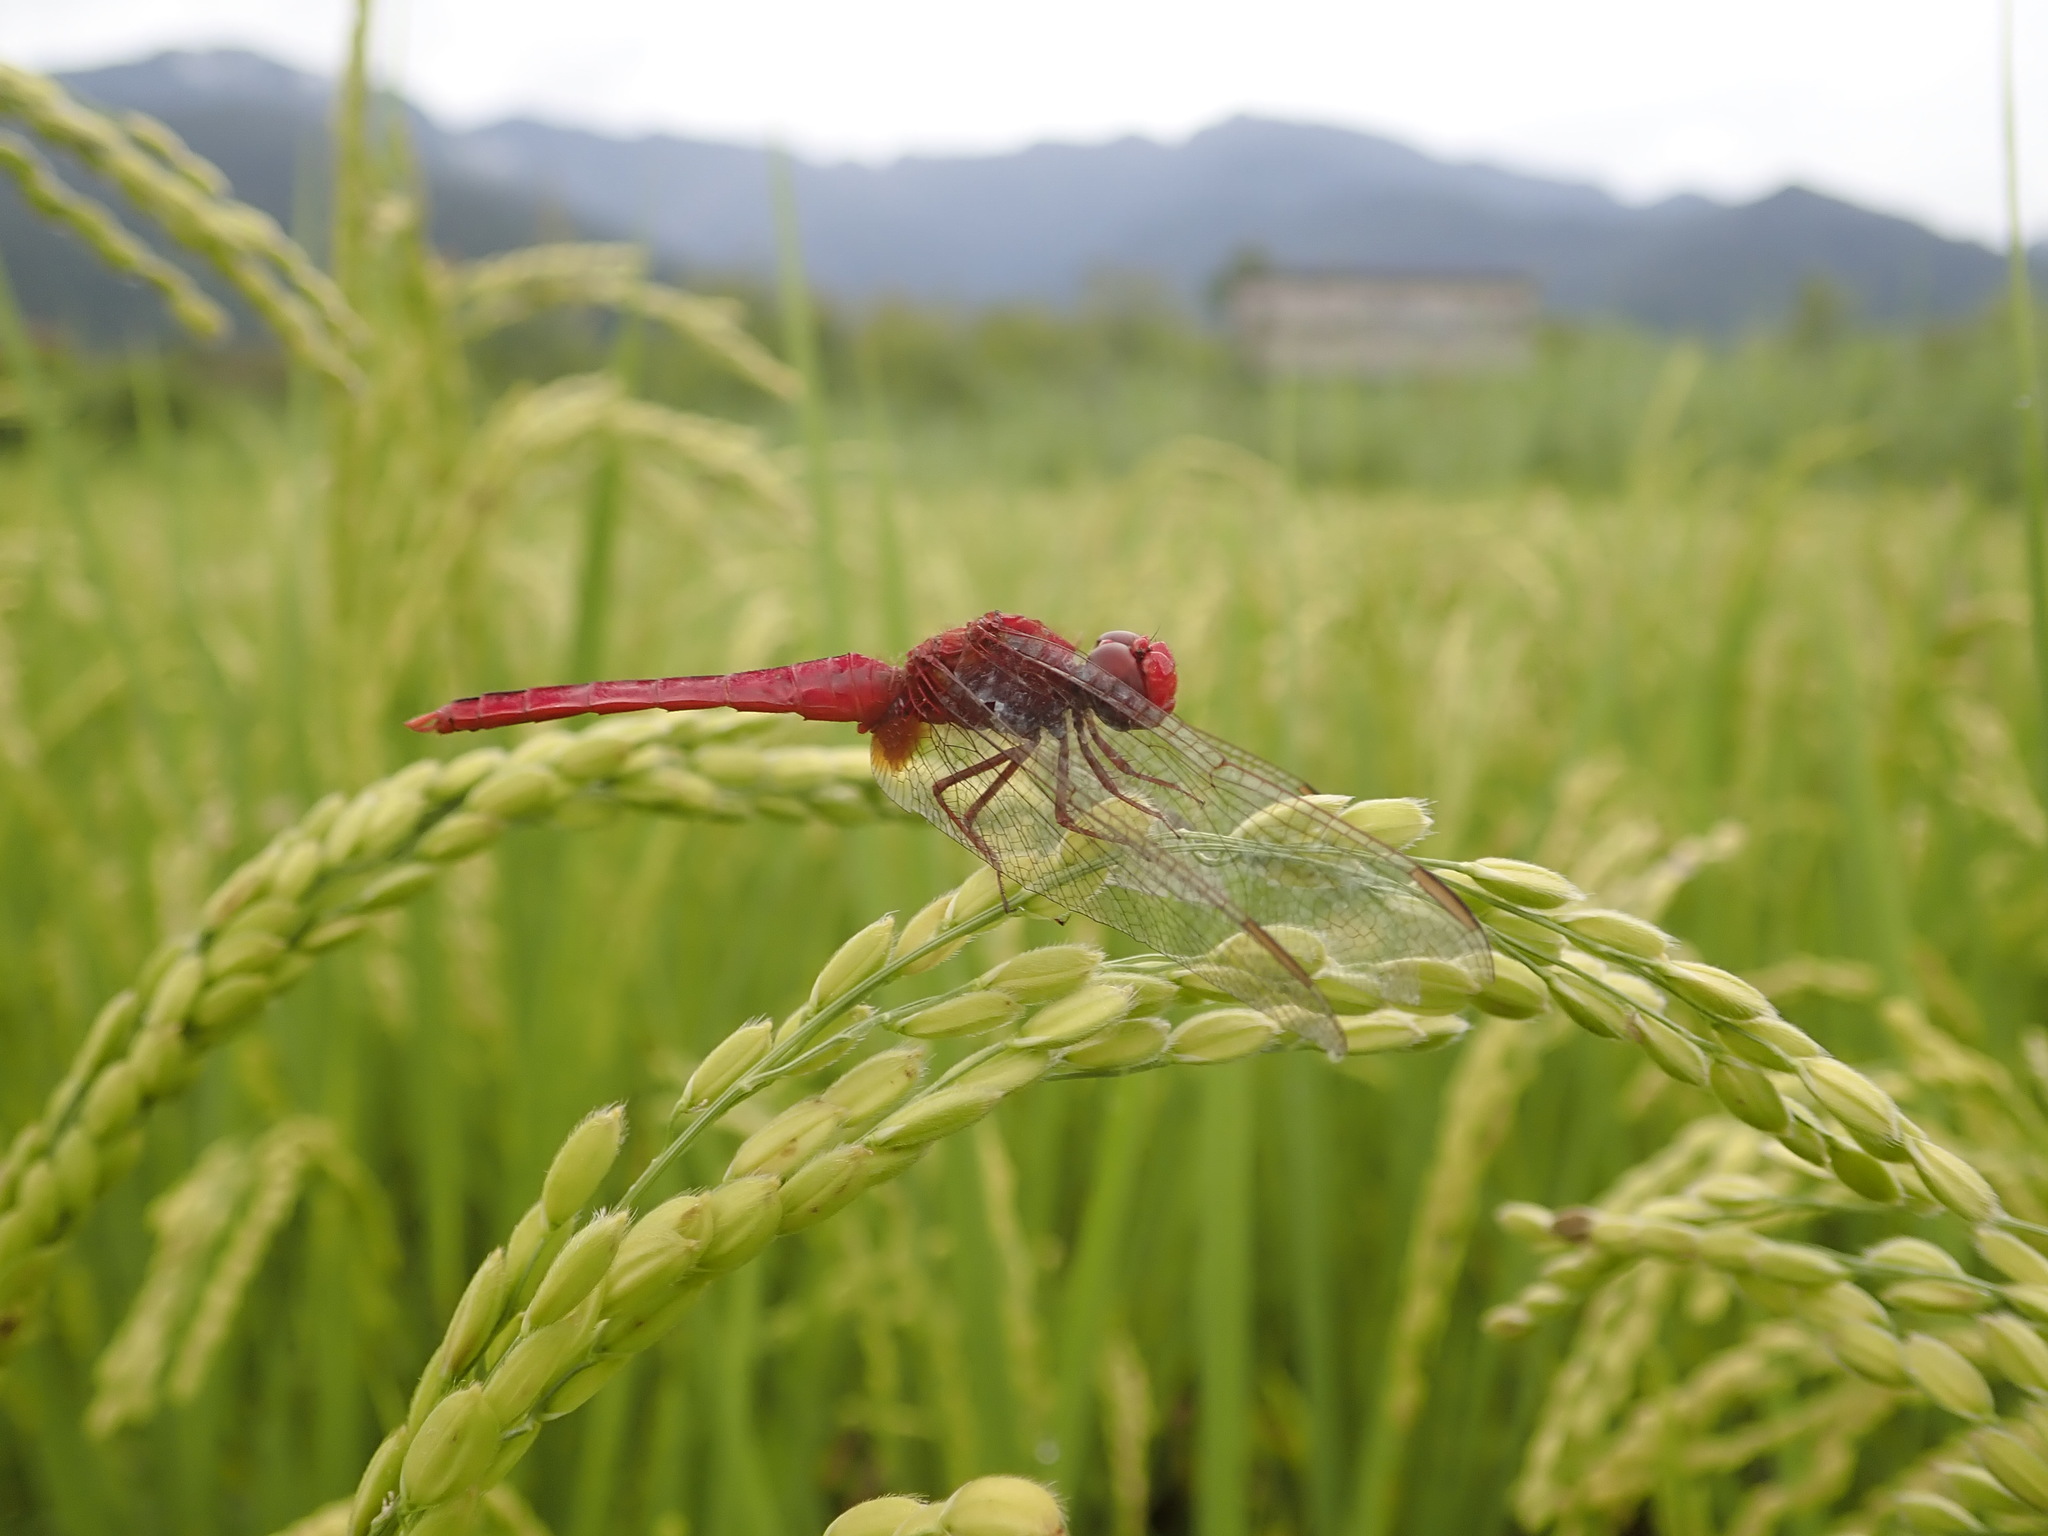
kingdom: Animalia
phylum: Arthropoda
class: Insecta
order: Odonata
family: Libellulidae
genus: Crocothemis
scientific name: Crocothemis servilia
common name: Scarlet skimmer
